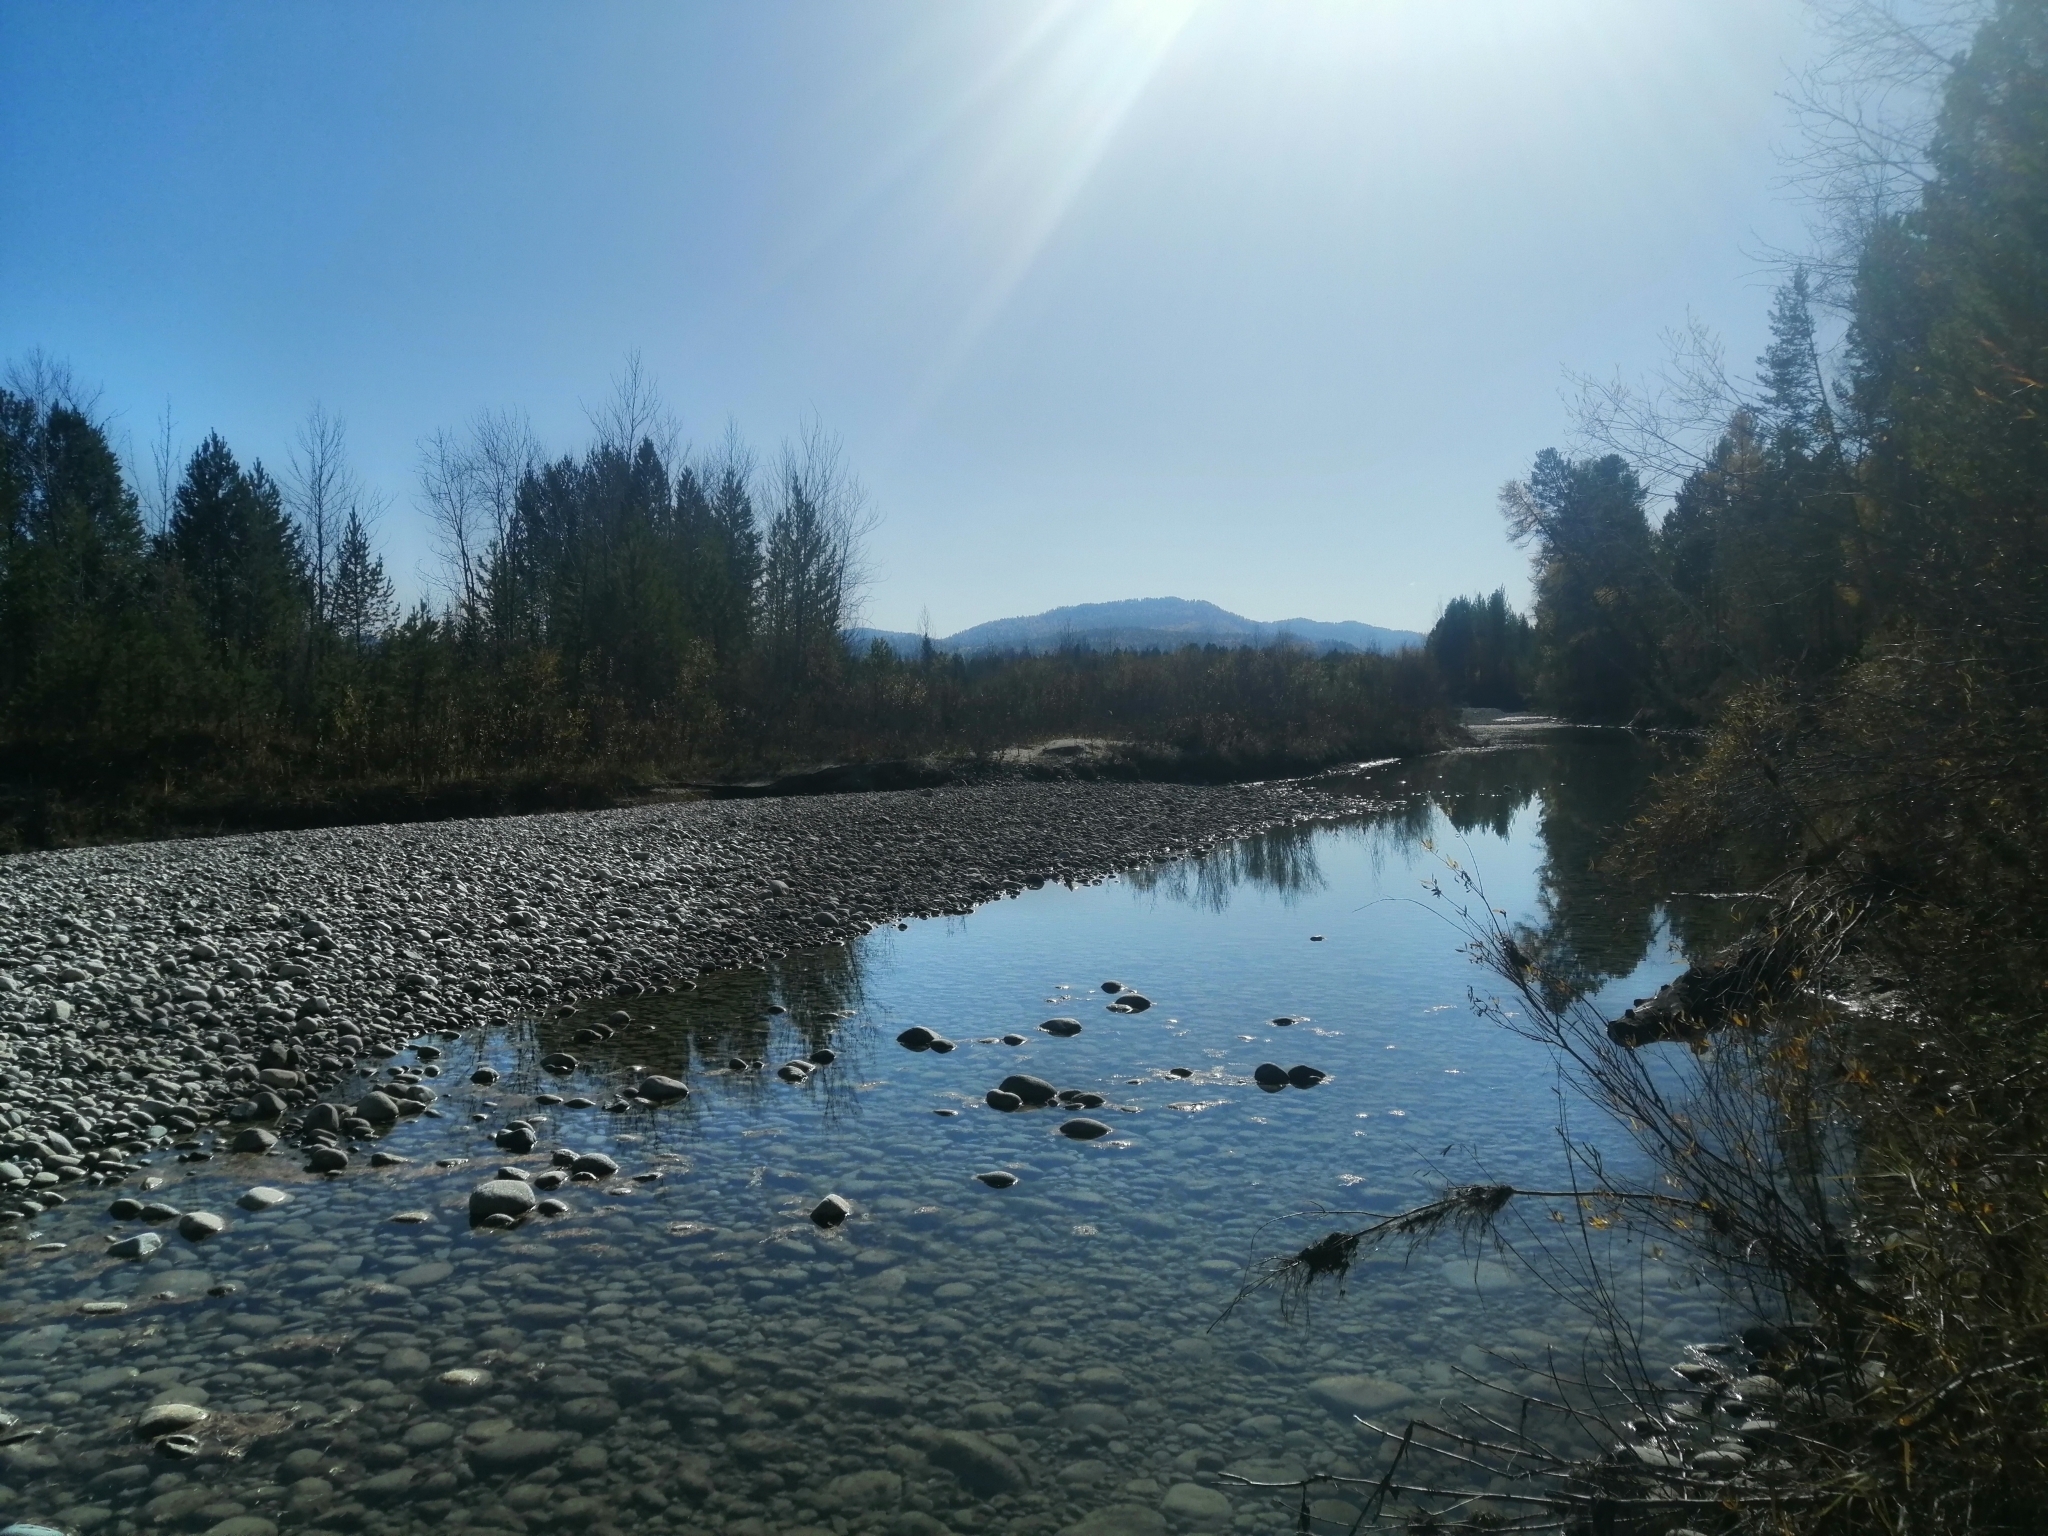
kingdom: Plantae
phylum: Tracheophyta
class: Pinopsida
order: Pinales
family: Pinaceae
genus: Pinus
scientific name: Pinus sylvestris
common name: Scots pine
